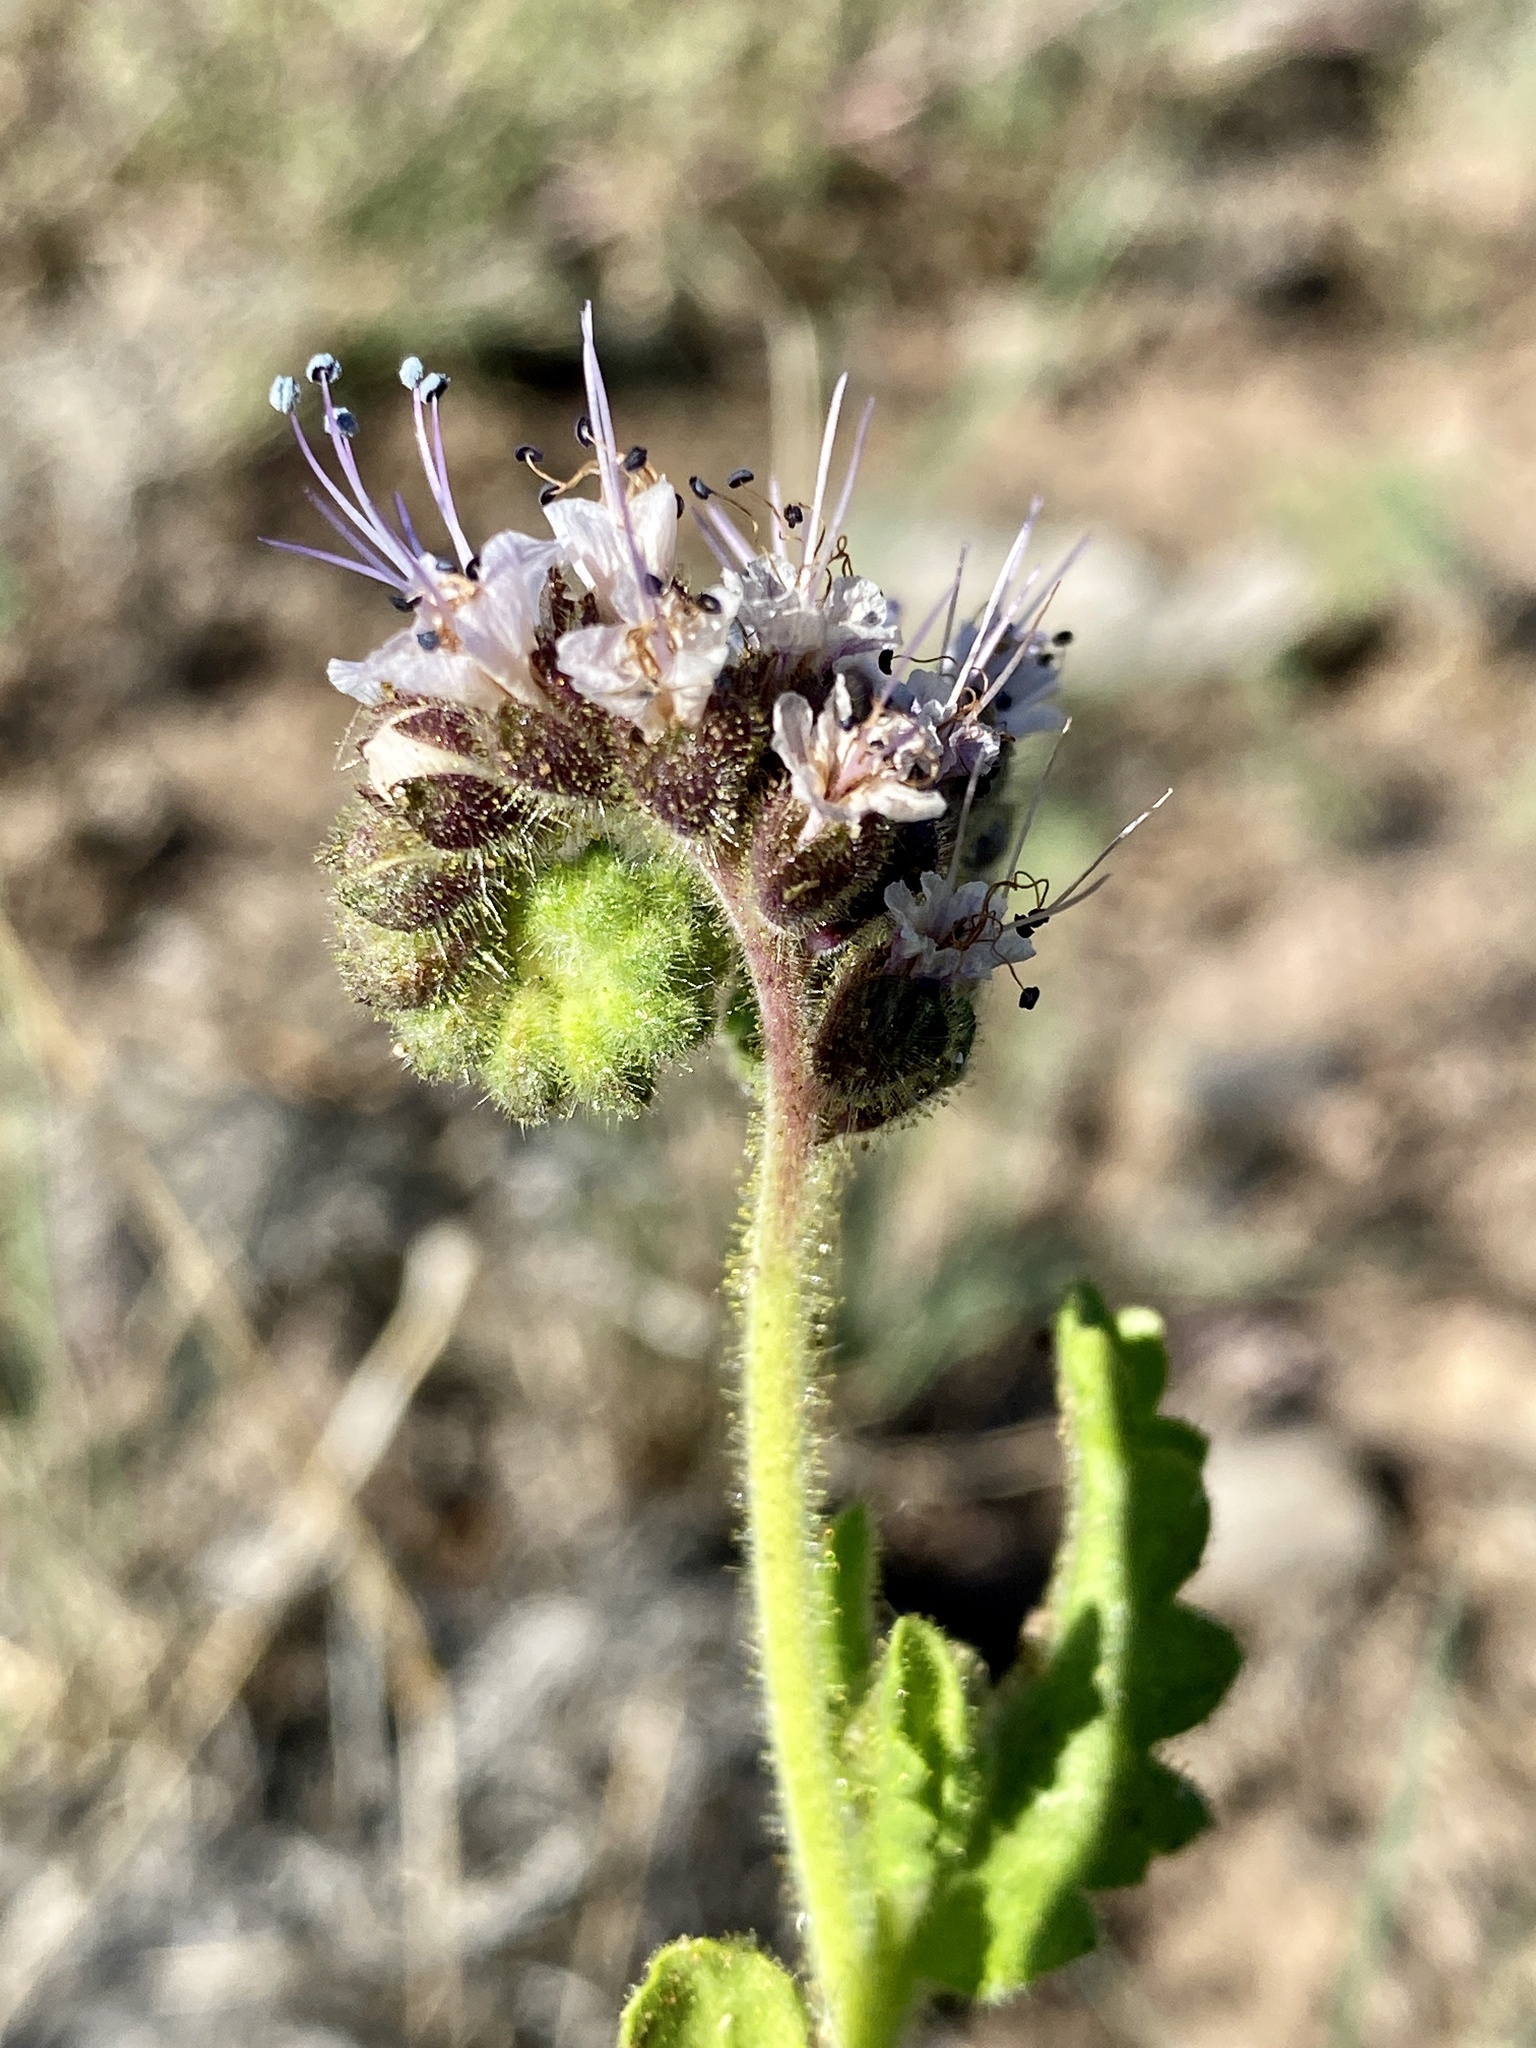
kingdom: Plantae
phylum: Tracheophyta
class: Magnoliopsida
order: Boraginales
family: Hydrophyllaceae
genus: Phacelia
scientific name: Phacelia integrifolia
